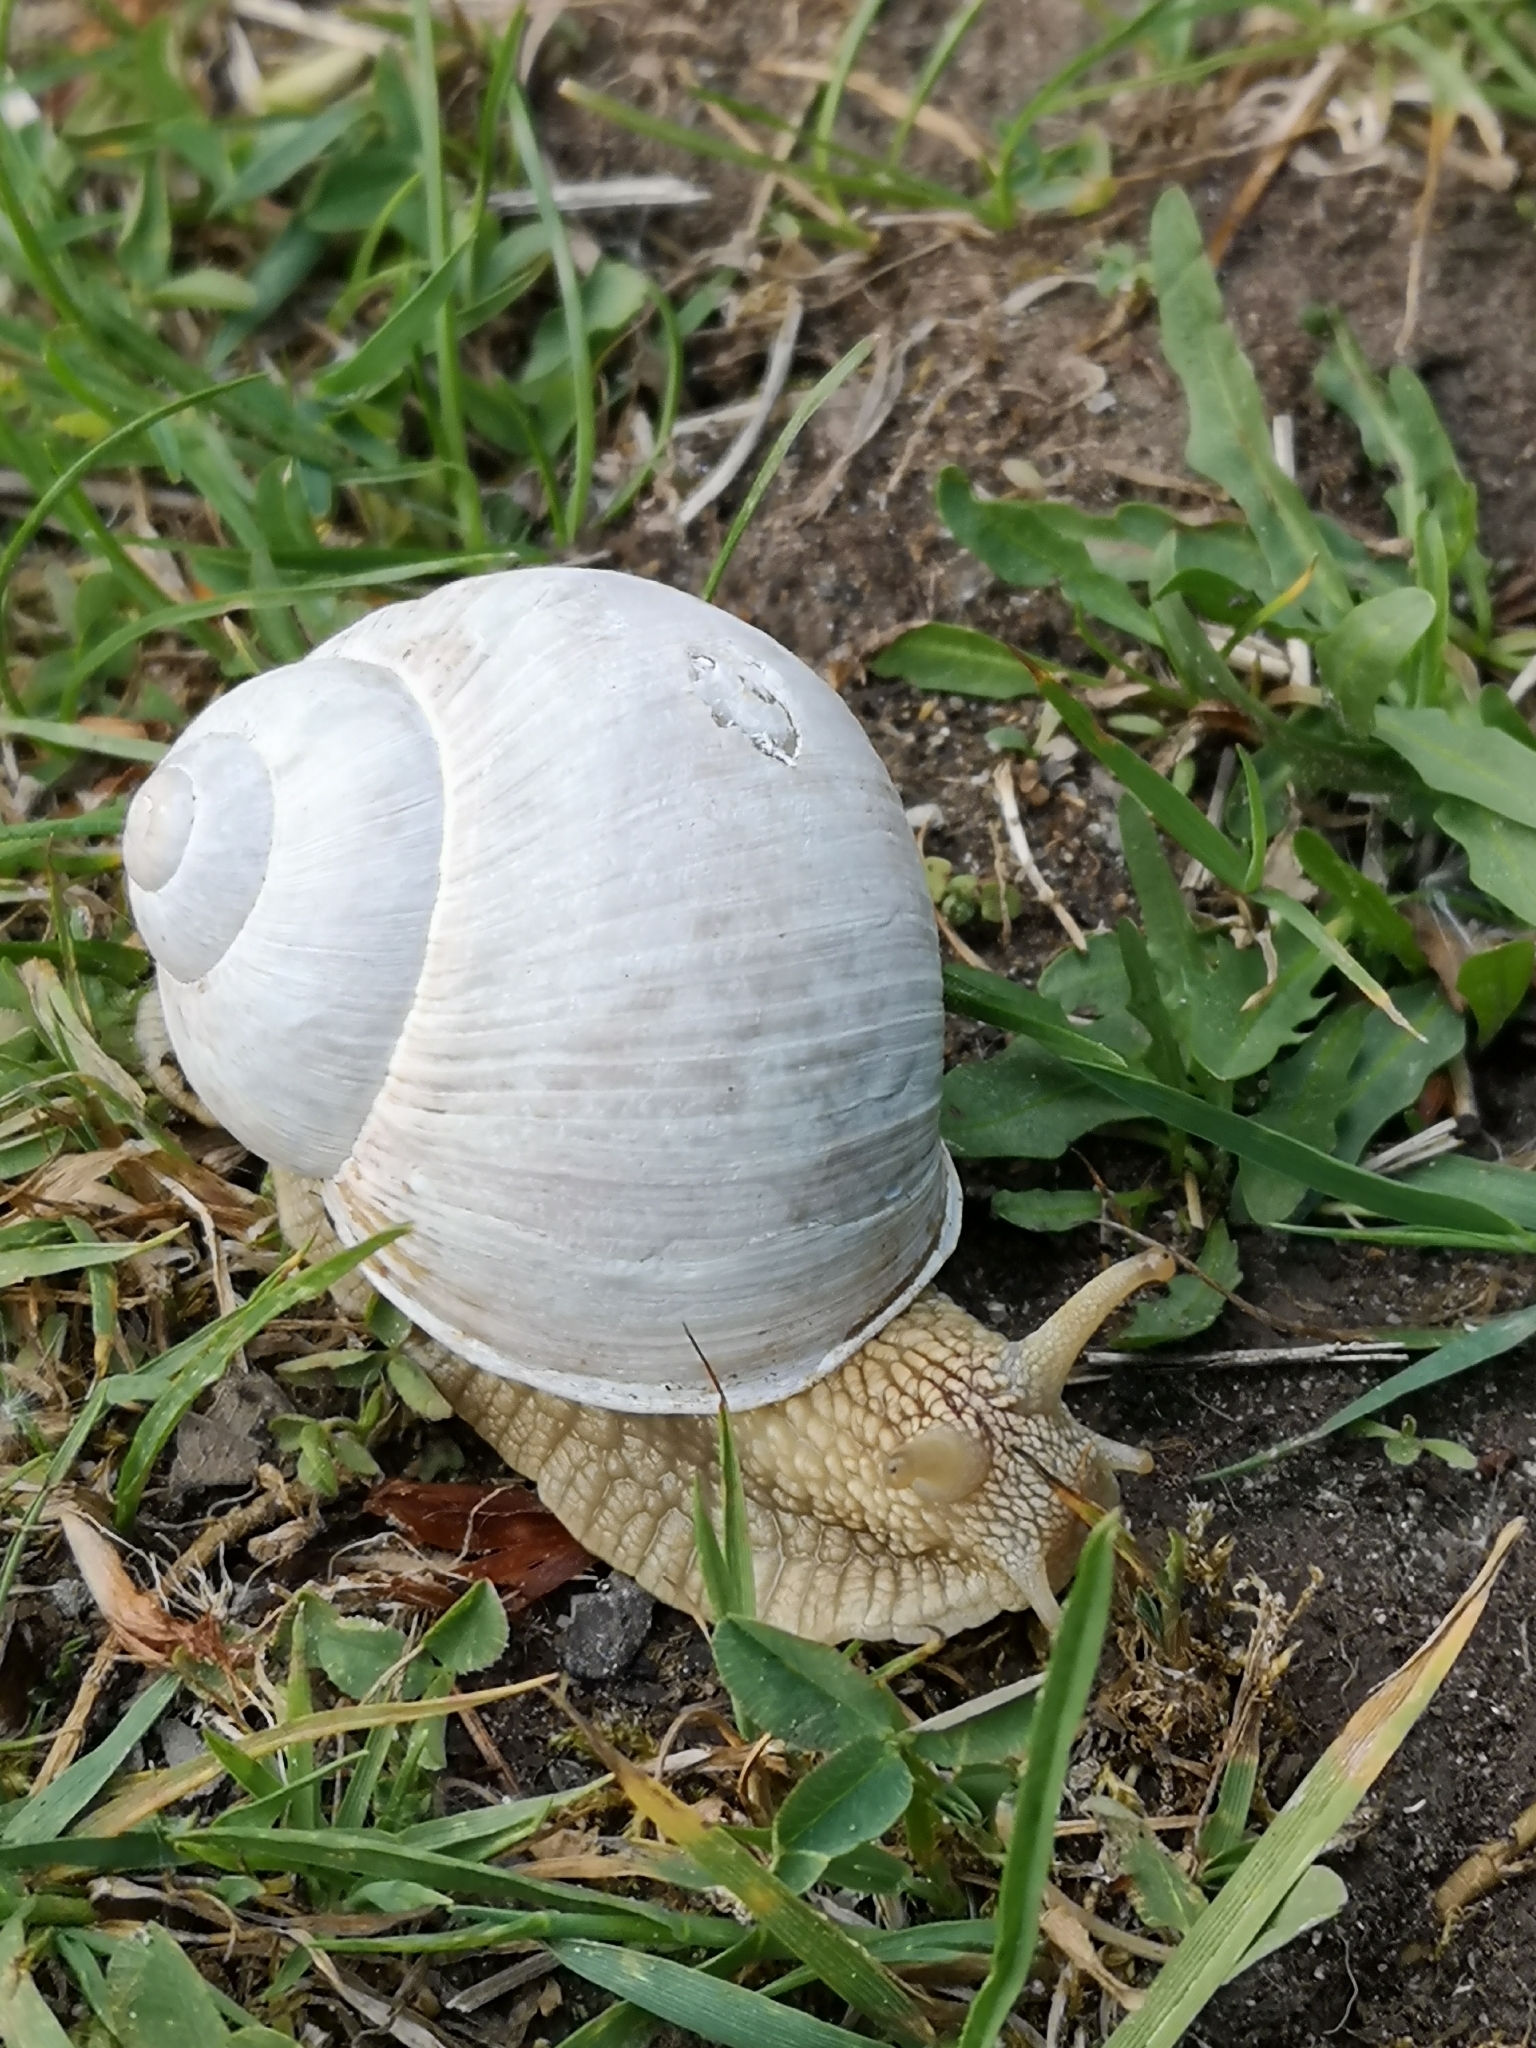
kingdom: Animalia
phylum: Mollusca
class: Gastropoda
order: Stylommatophora
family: Helicidae
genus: Helix
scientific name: Helix pomatia
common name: Roman snail
